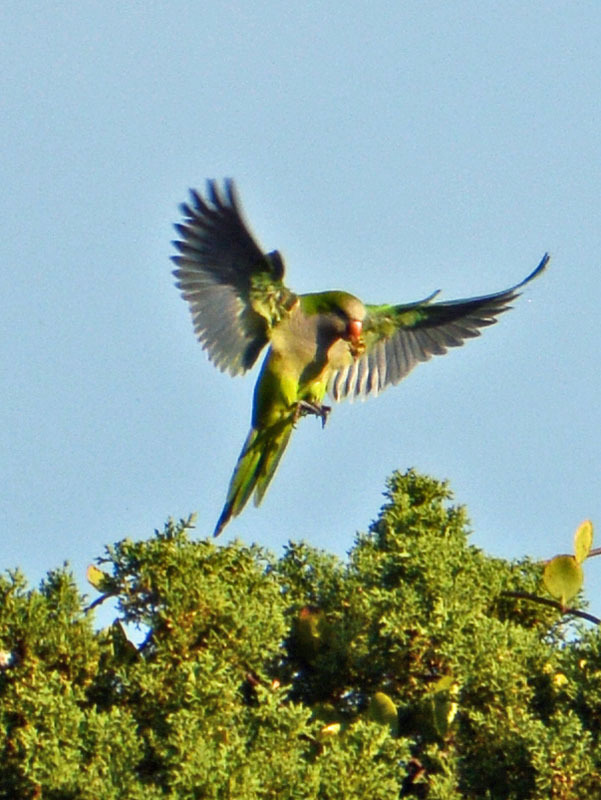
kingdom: Animalia
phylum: Chordata
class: Aves
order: Psittaciformes
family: Psittacidae
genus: Myiopsitta
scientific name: Myiopsitta monachus
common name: Monk parakeet
